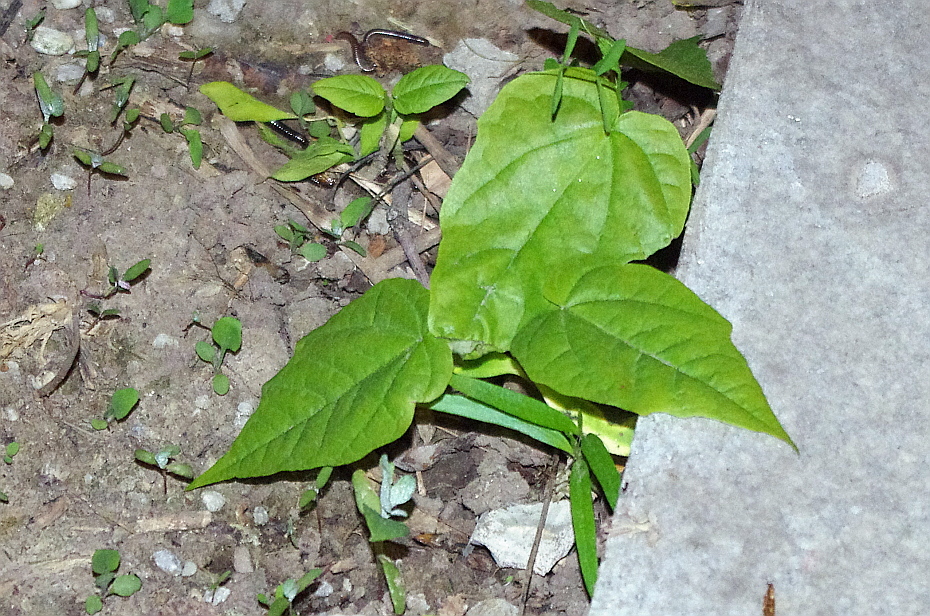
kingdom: Plantae
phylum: Tracheophyta
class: Magnoliopsida
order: Sapindales
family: Sapindaceae
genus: Acer
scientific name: Acer negundo
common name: Ashleaf maple
